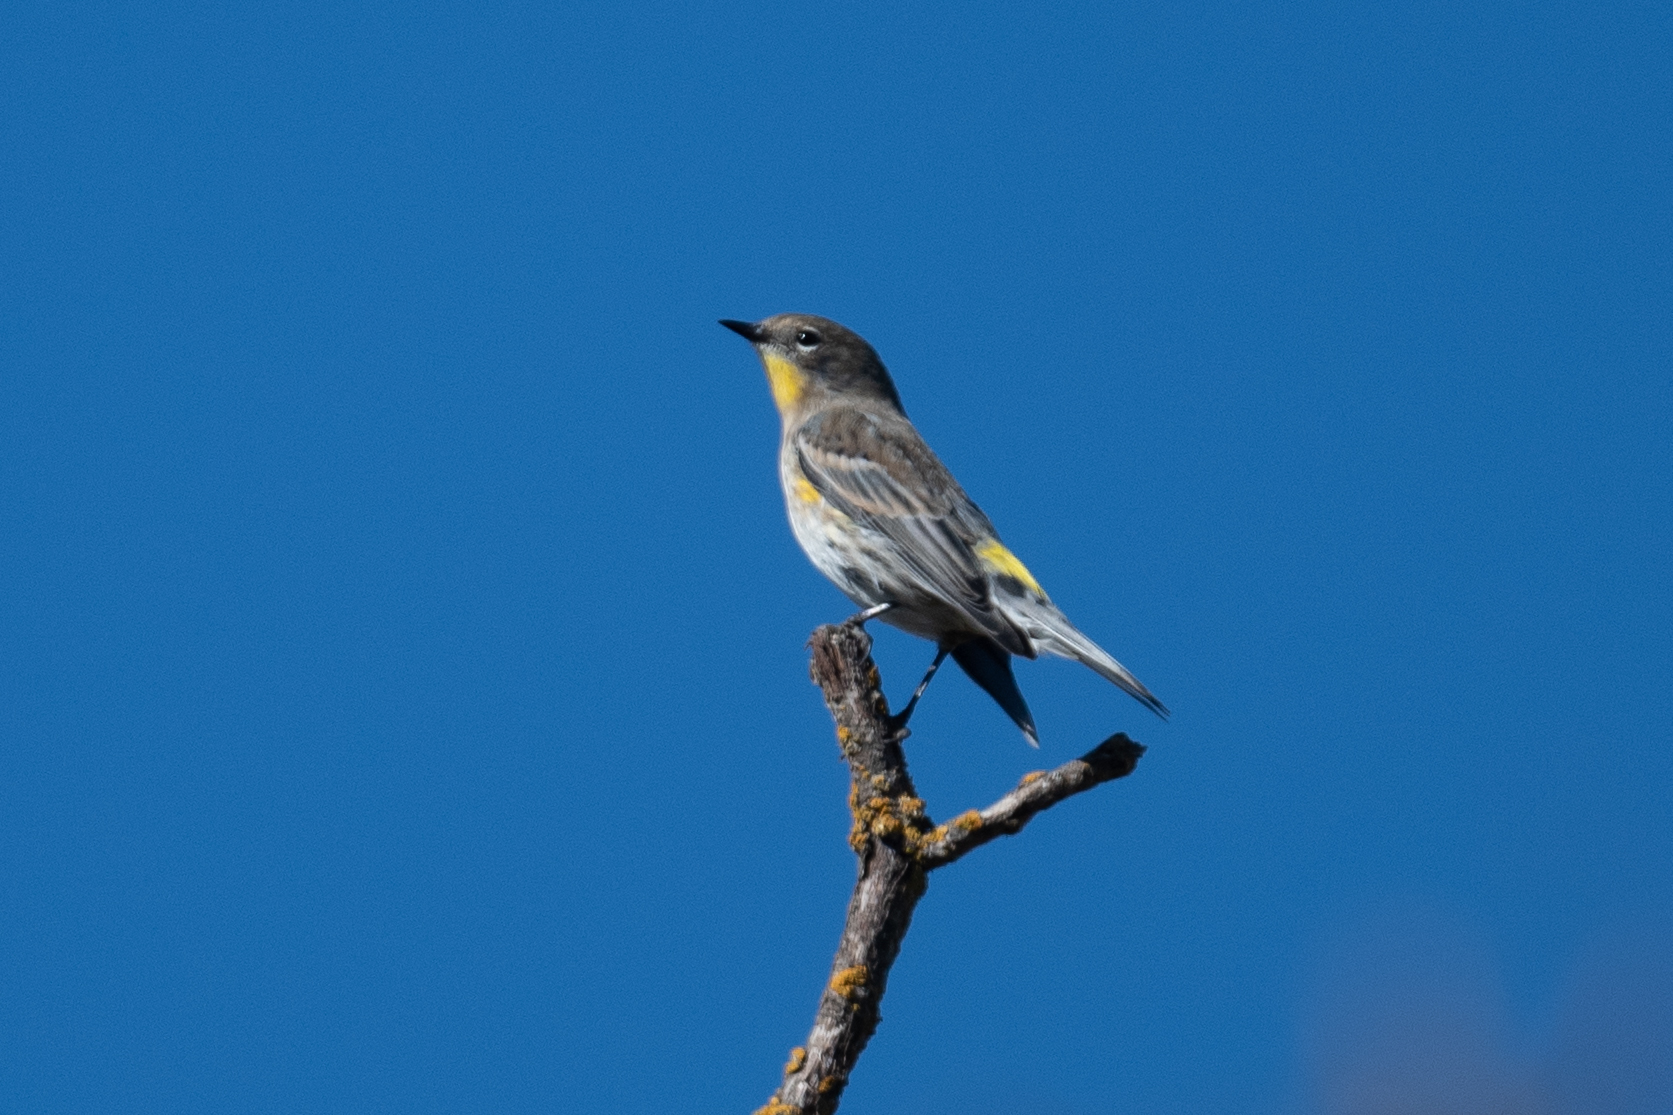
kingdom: Animalia
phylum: Chordata
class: Aves
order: Passeriformes
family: Parulidae
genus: Setophaga
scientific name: Setophaga coronata
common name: Myrtle warbler
